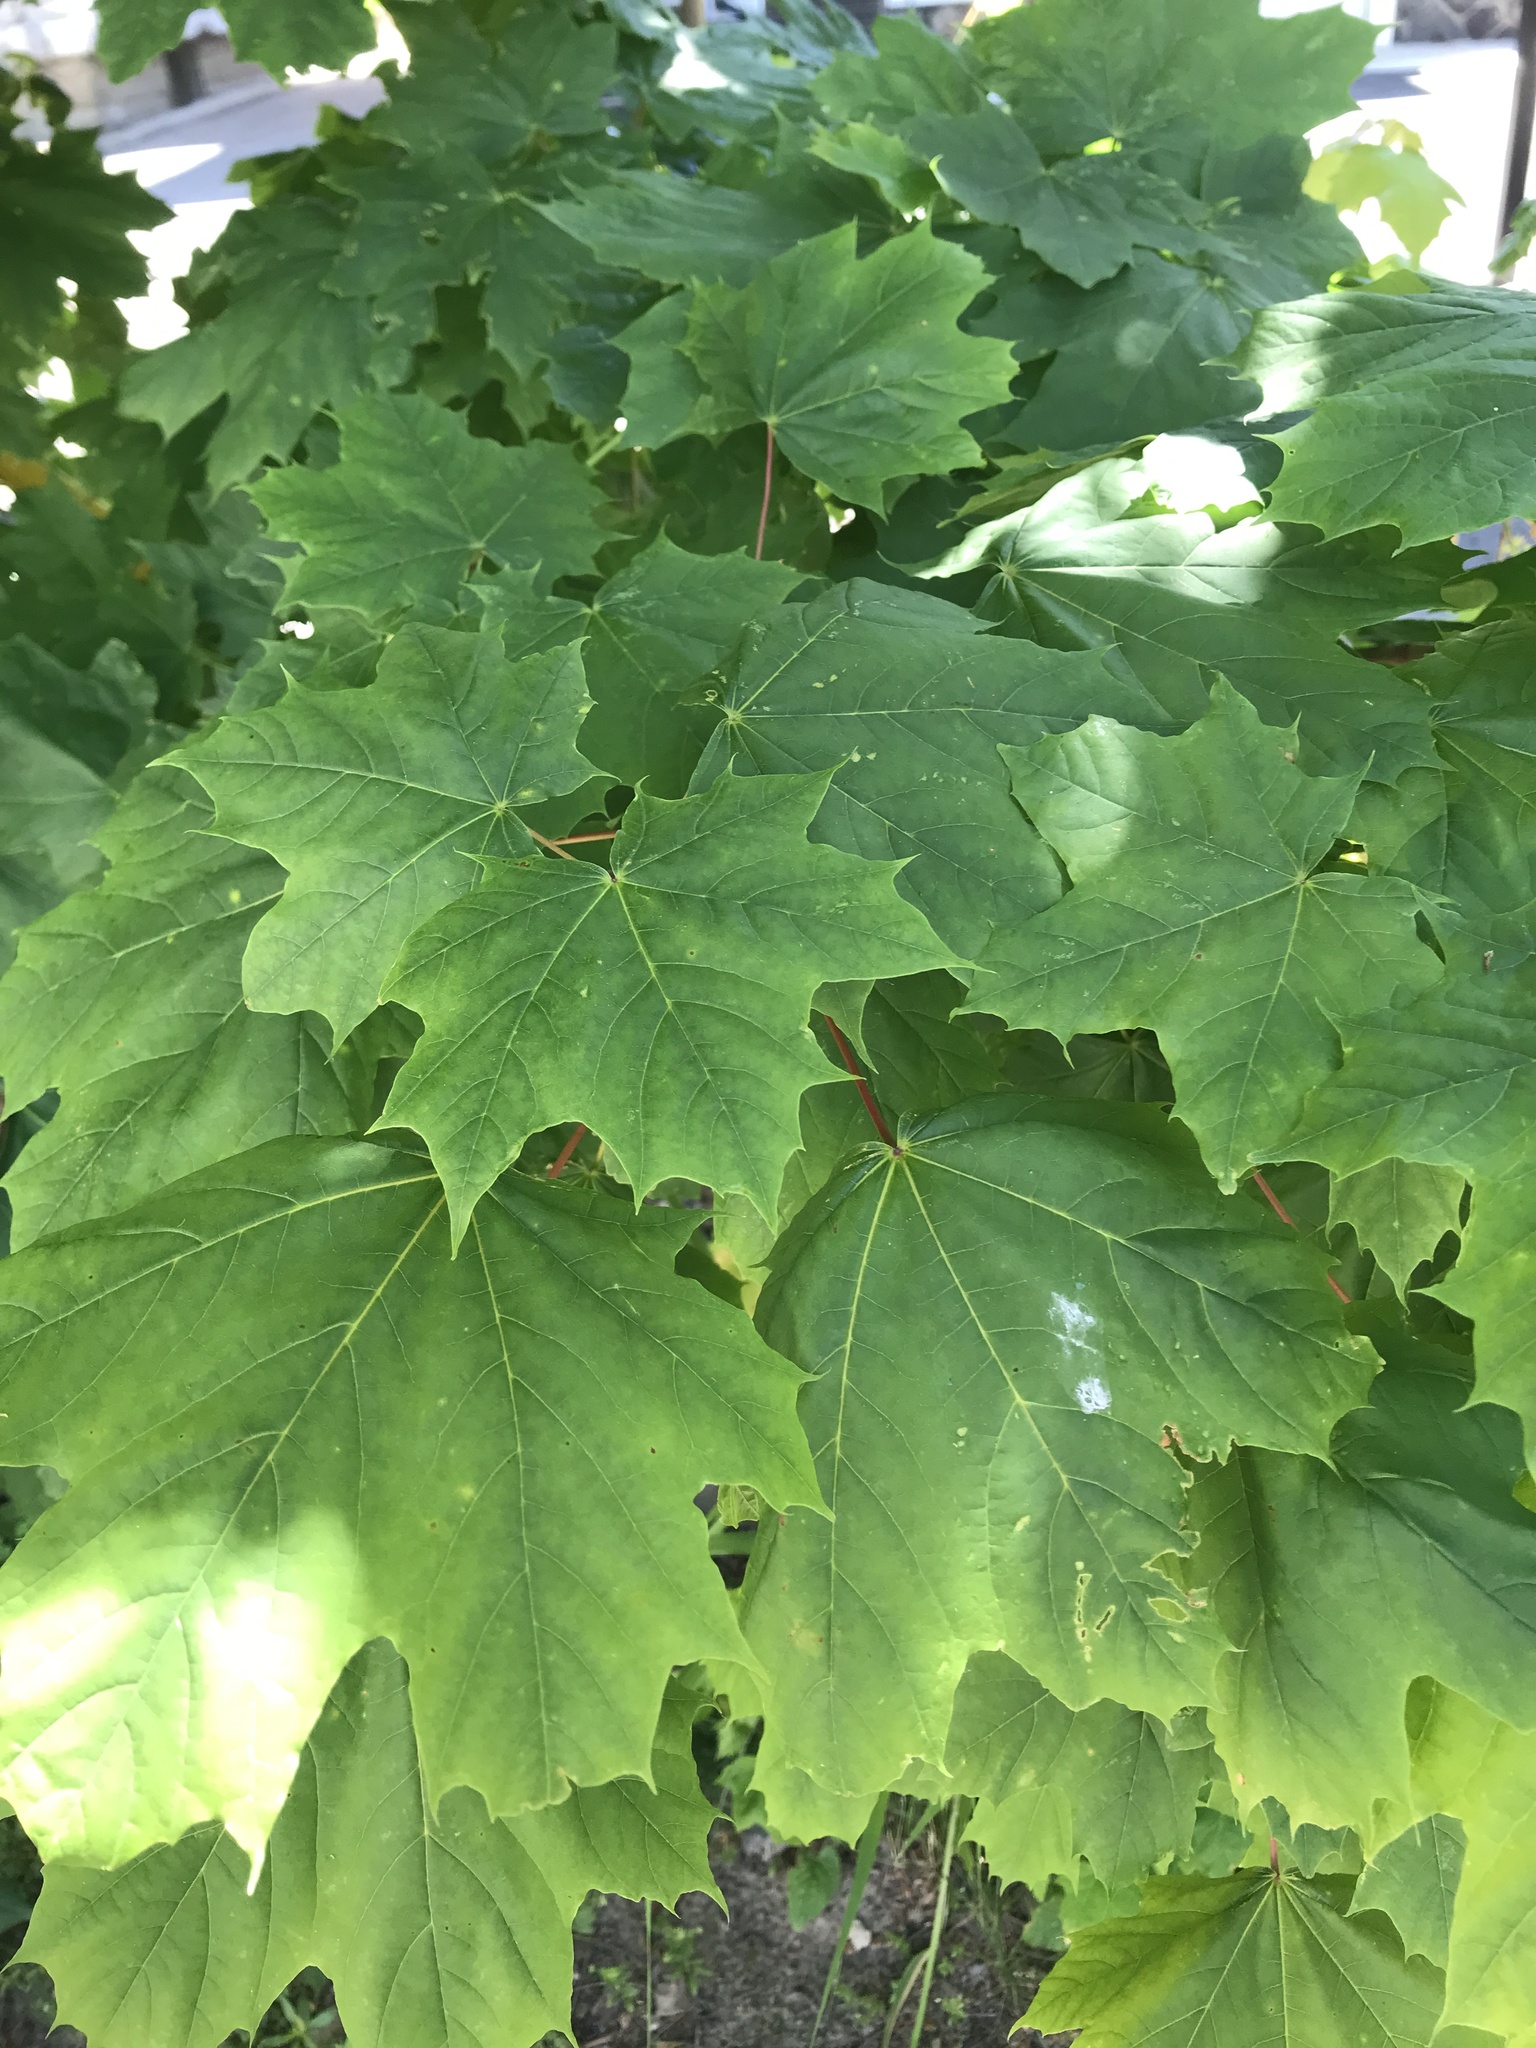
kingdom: Plantae
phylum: Tracheophyta
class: Magnoliopsida
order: Sapindales
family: Sapindaceae
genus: Acer
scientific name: Acer platanoides
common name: Norway maple
